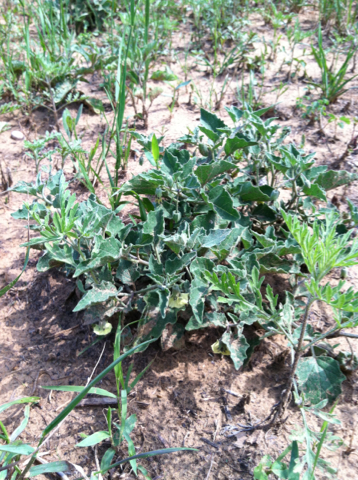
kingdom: Plantae
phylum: Tracheophyta
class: Magnoliopsida
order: Solanales
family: Solanaceae
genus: Physalis
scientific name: Physalis cinerascens
